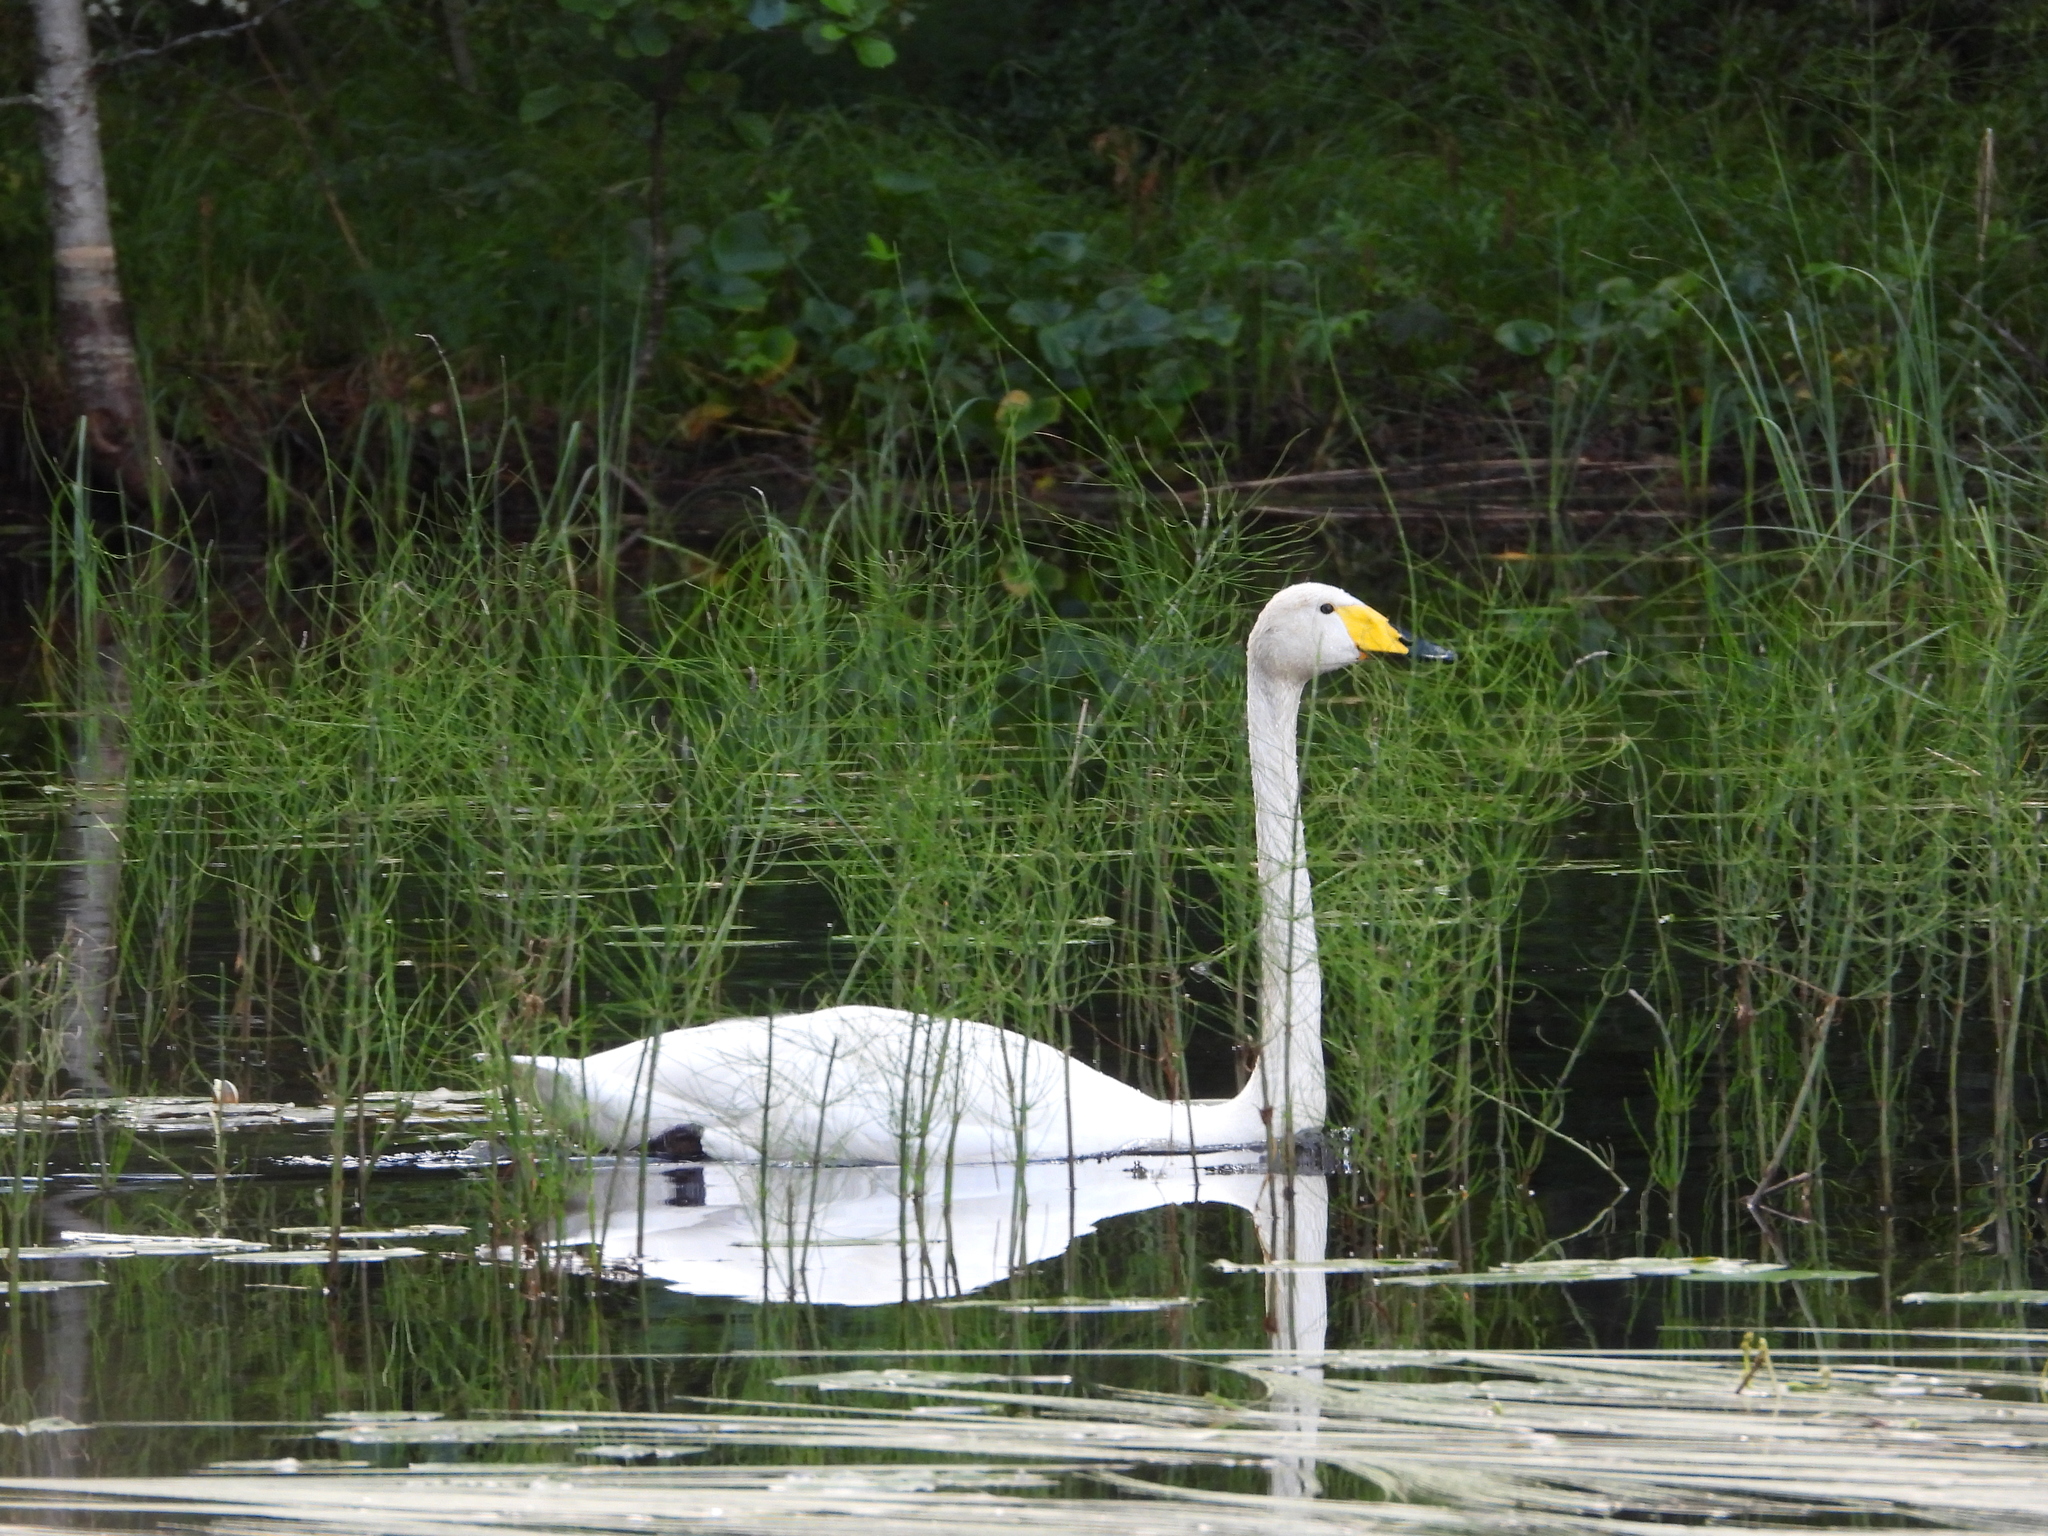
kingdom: Animalia
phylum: Chordata
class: Aves
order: Anseriformes
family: Anatidae
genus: Cygnus
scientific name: Cygnus cygnus
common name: Whooper swan
